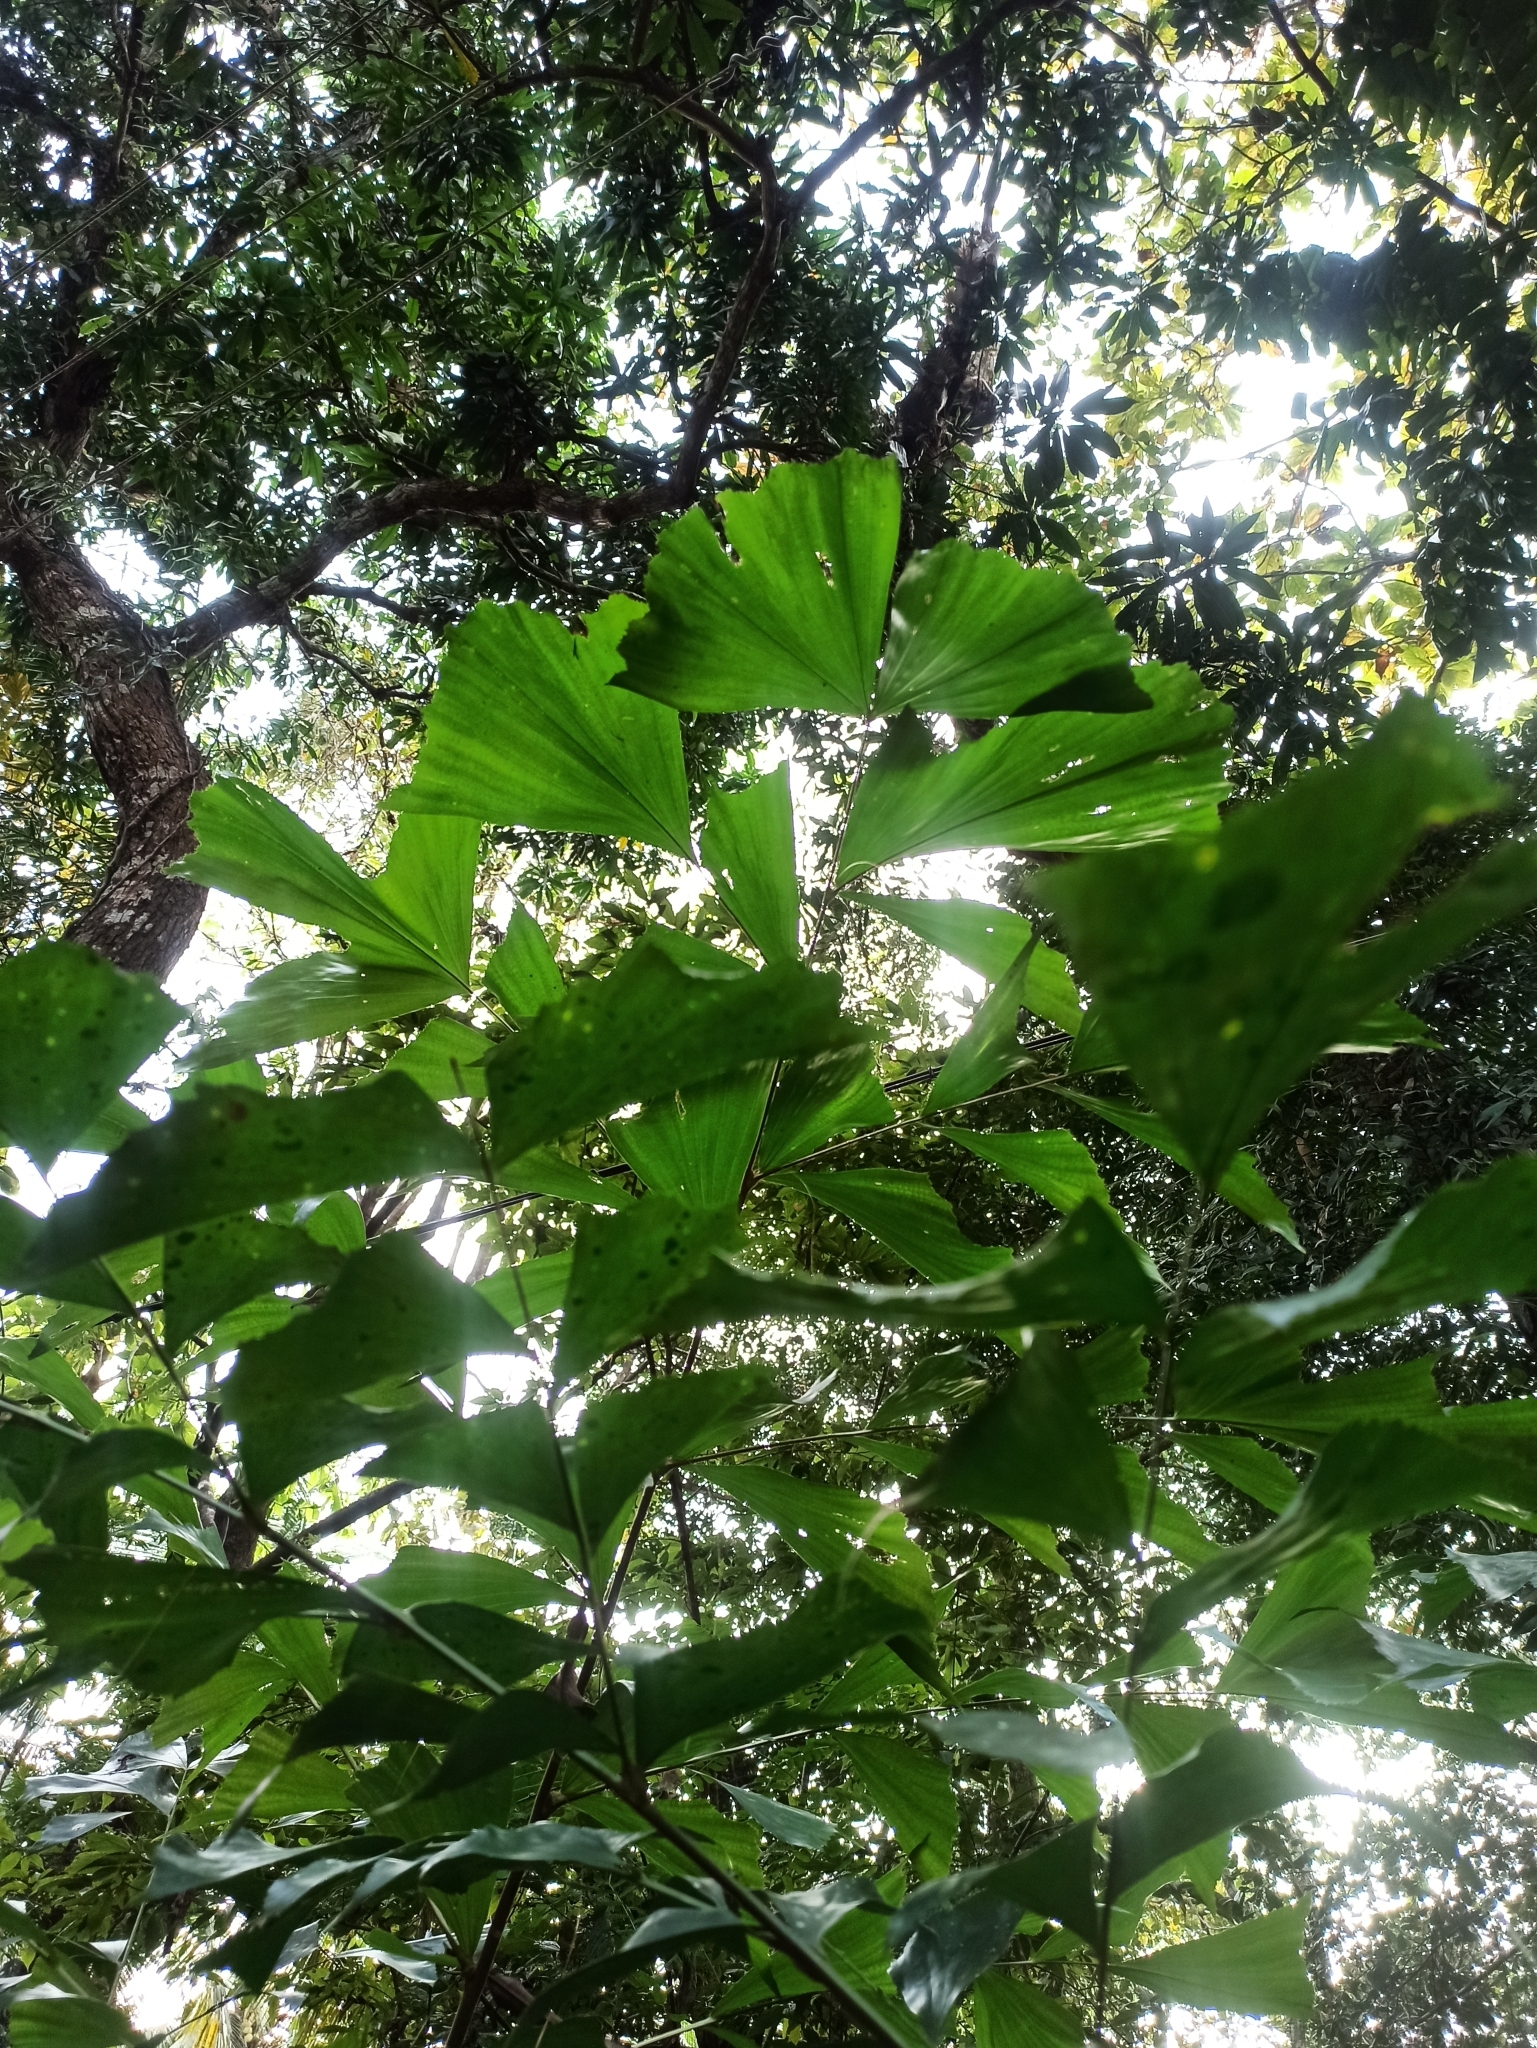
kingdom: Plantae
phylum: Tracheophyta
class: Liliopsida
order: Arecales
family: Arecaceae
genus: Caryota
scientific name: Caryota urens
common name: Jaggery palm
